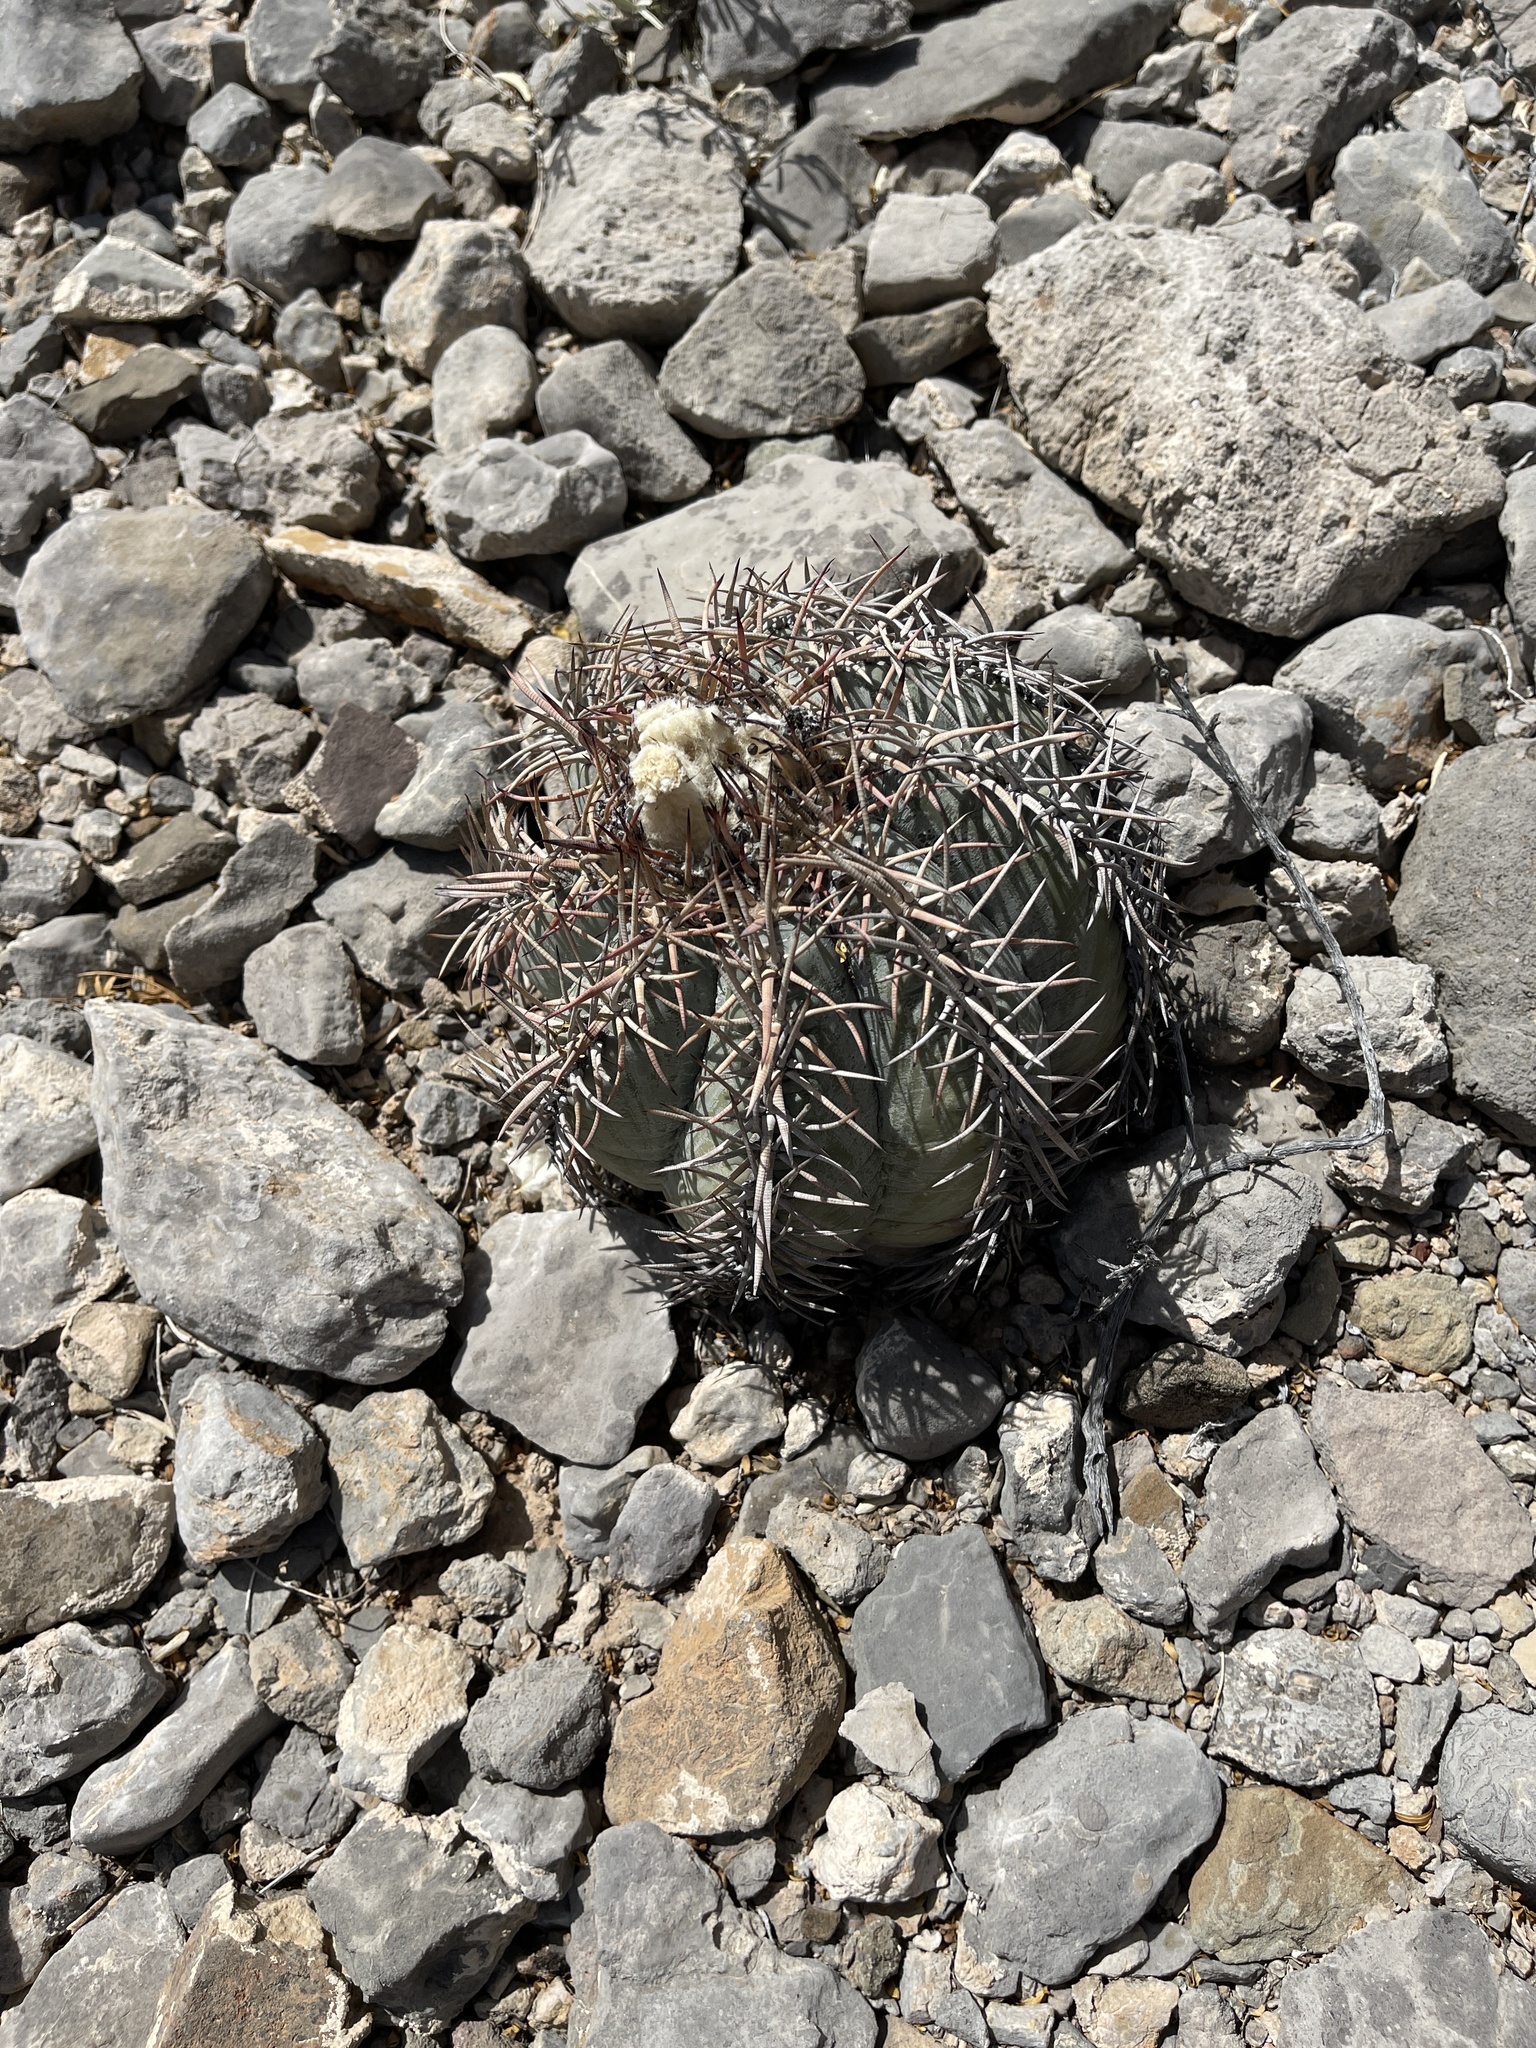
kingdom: Plantae
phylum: Tracheophyta
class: Magnoliopsida
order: Caryophyllales
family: Cactaceae
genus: Echinocactus
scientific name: Echinocactus horizonthalonius
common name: Devilshead
